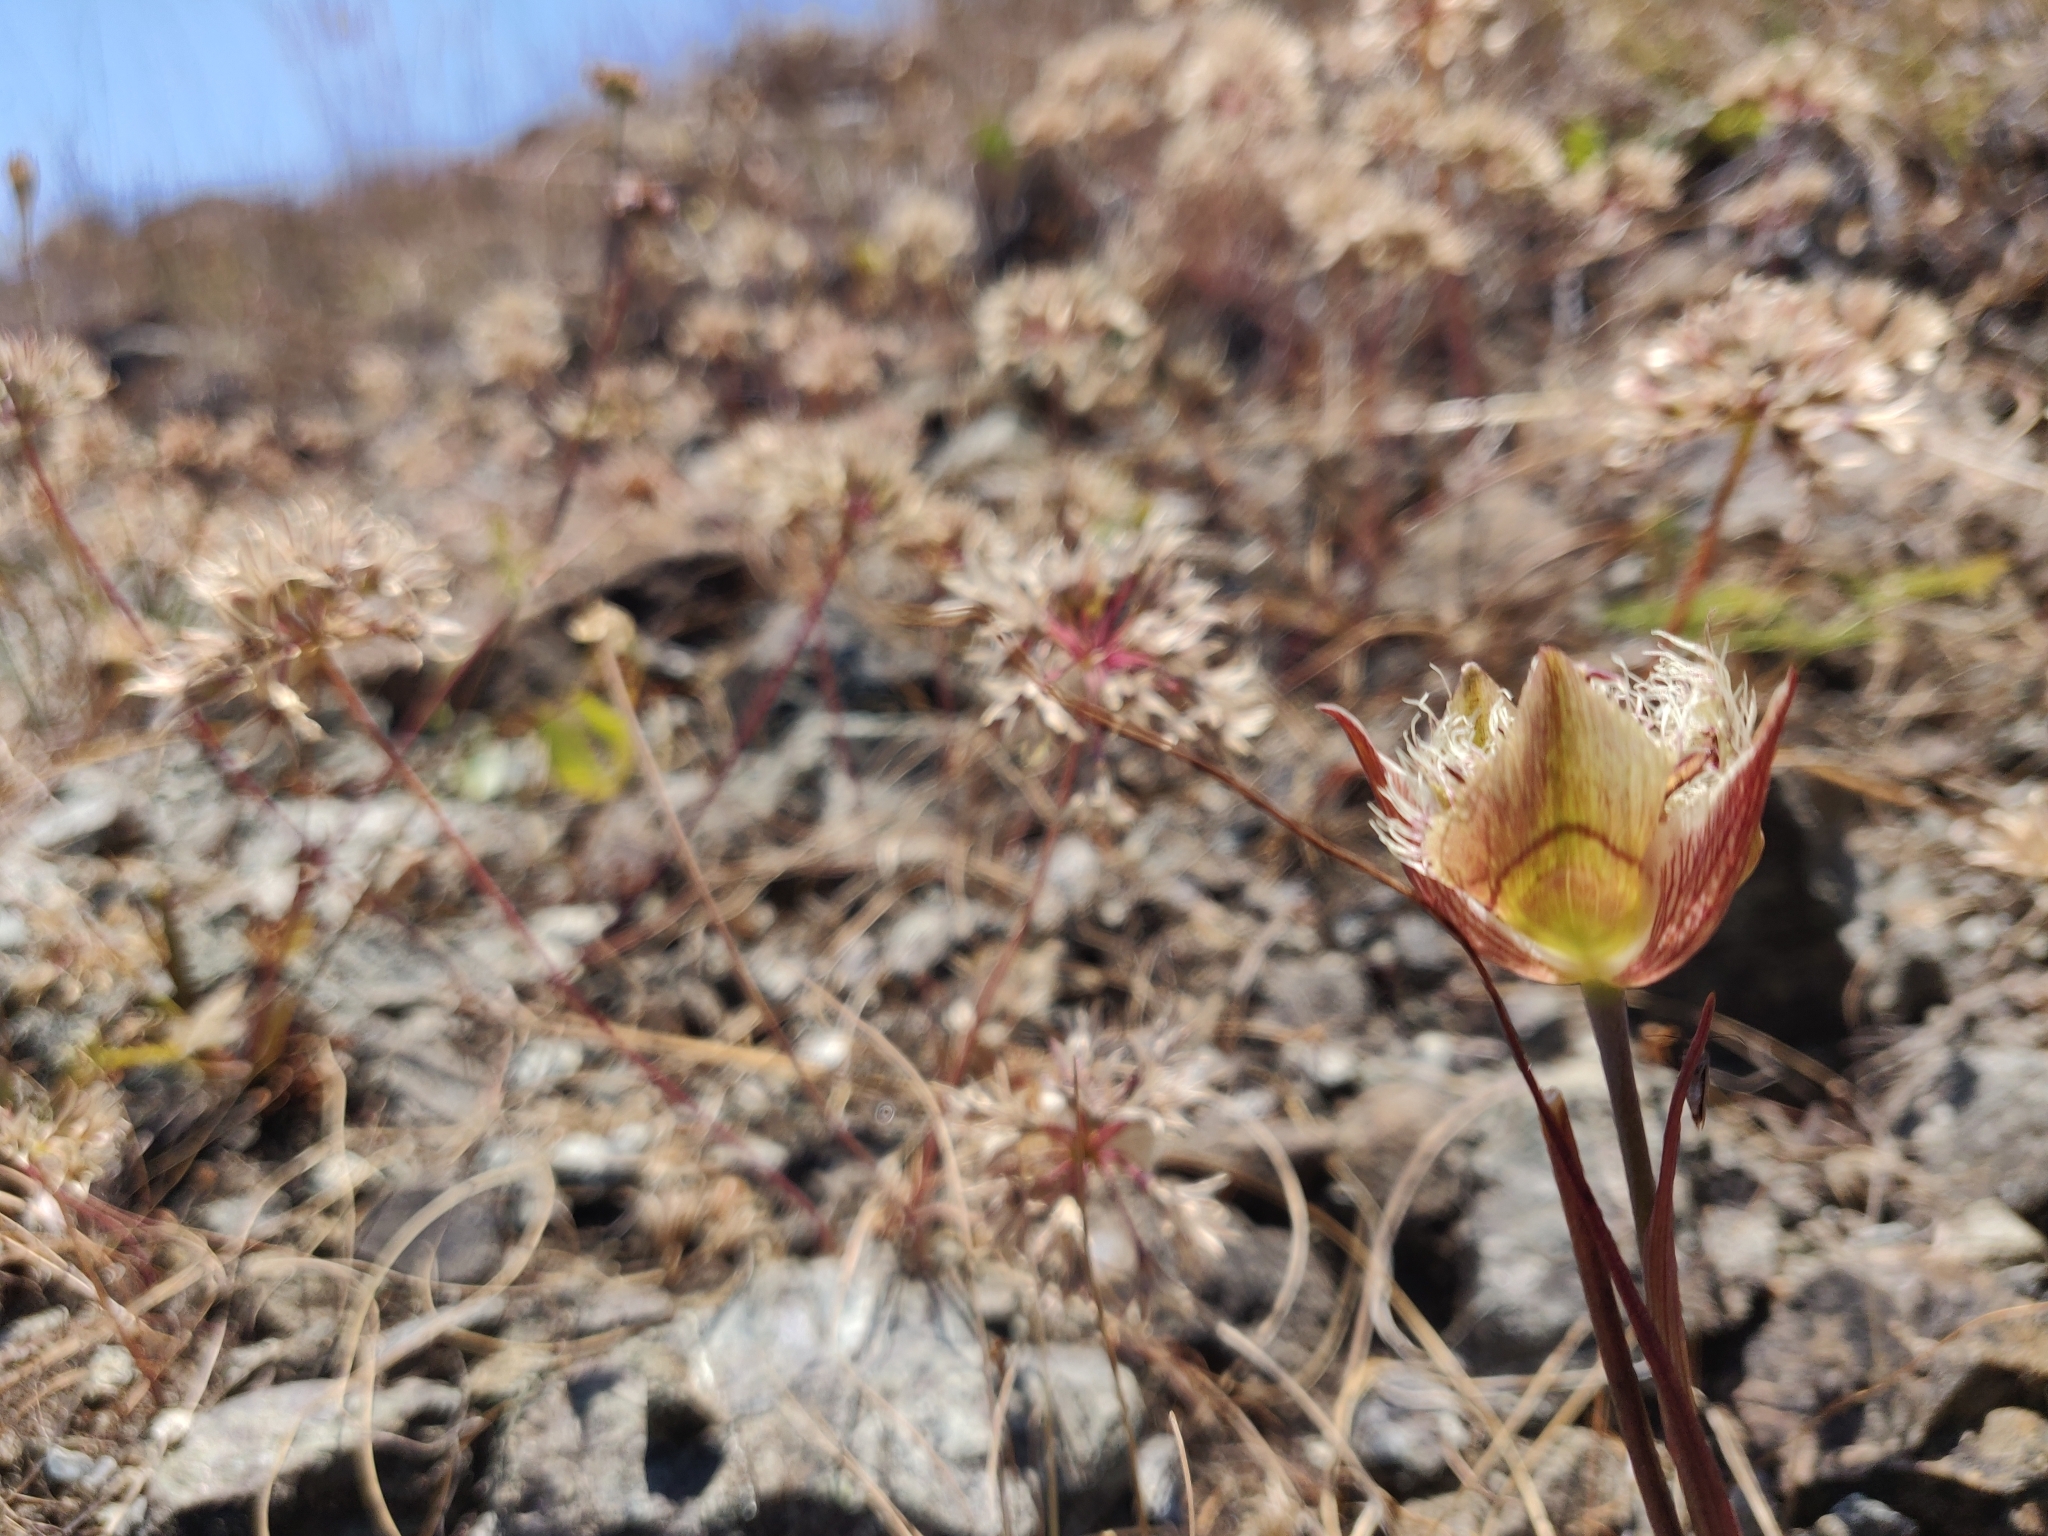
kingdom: Plantae
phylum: Tracheophyta
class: Liliopsida
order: Liliales
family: Liliaceae
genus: Calochortus
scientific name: Calochortus tiburonensis
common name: Tiburon mariposa-lily
